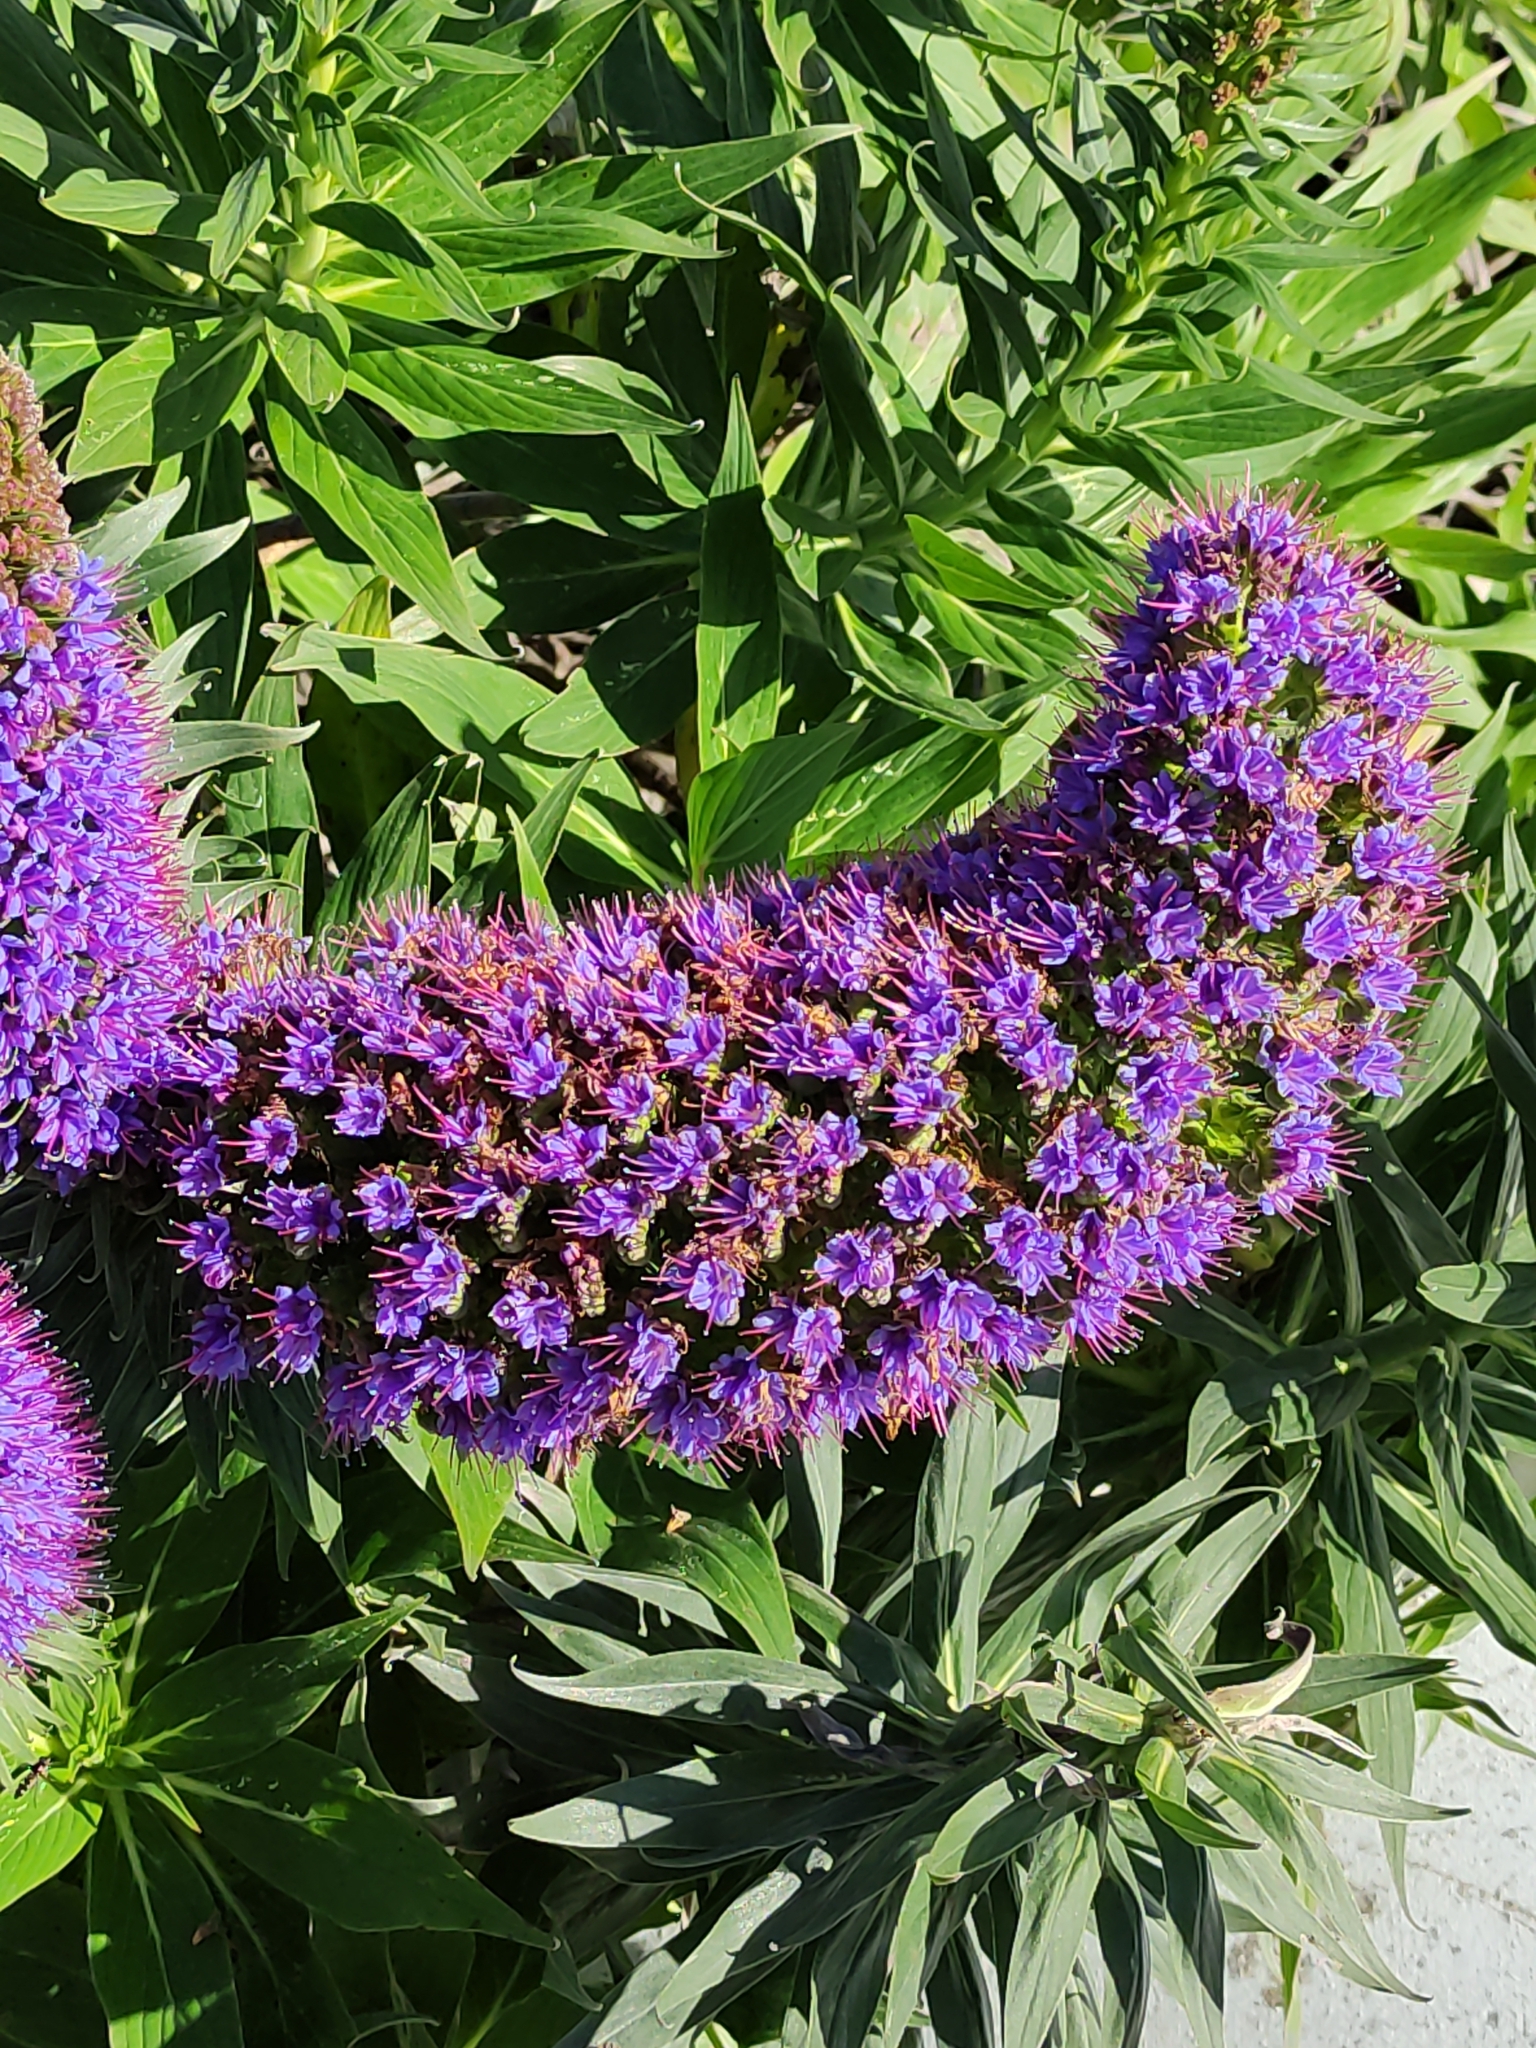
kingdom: Plantae
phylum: Tracheophyta
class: Magnoliopsida
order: Boraginales
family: Boraginaceae
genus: Echium
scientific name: Echium candicans
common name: Pride of madeira
